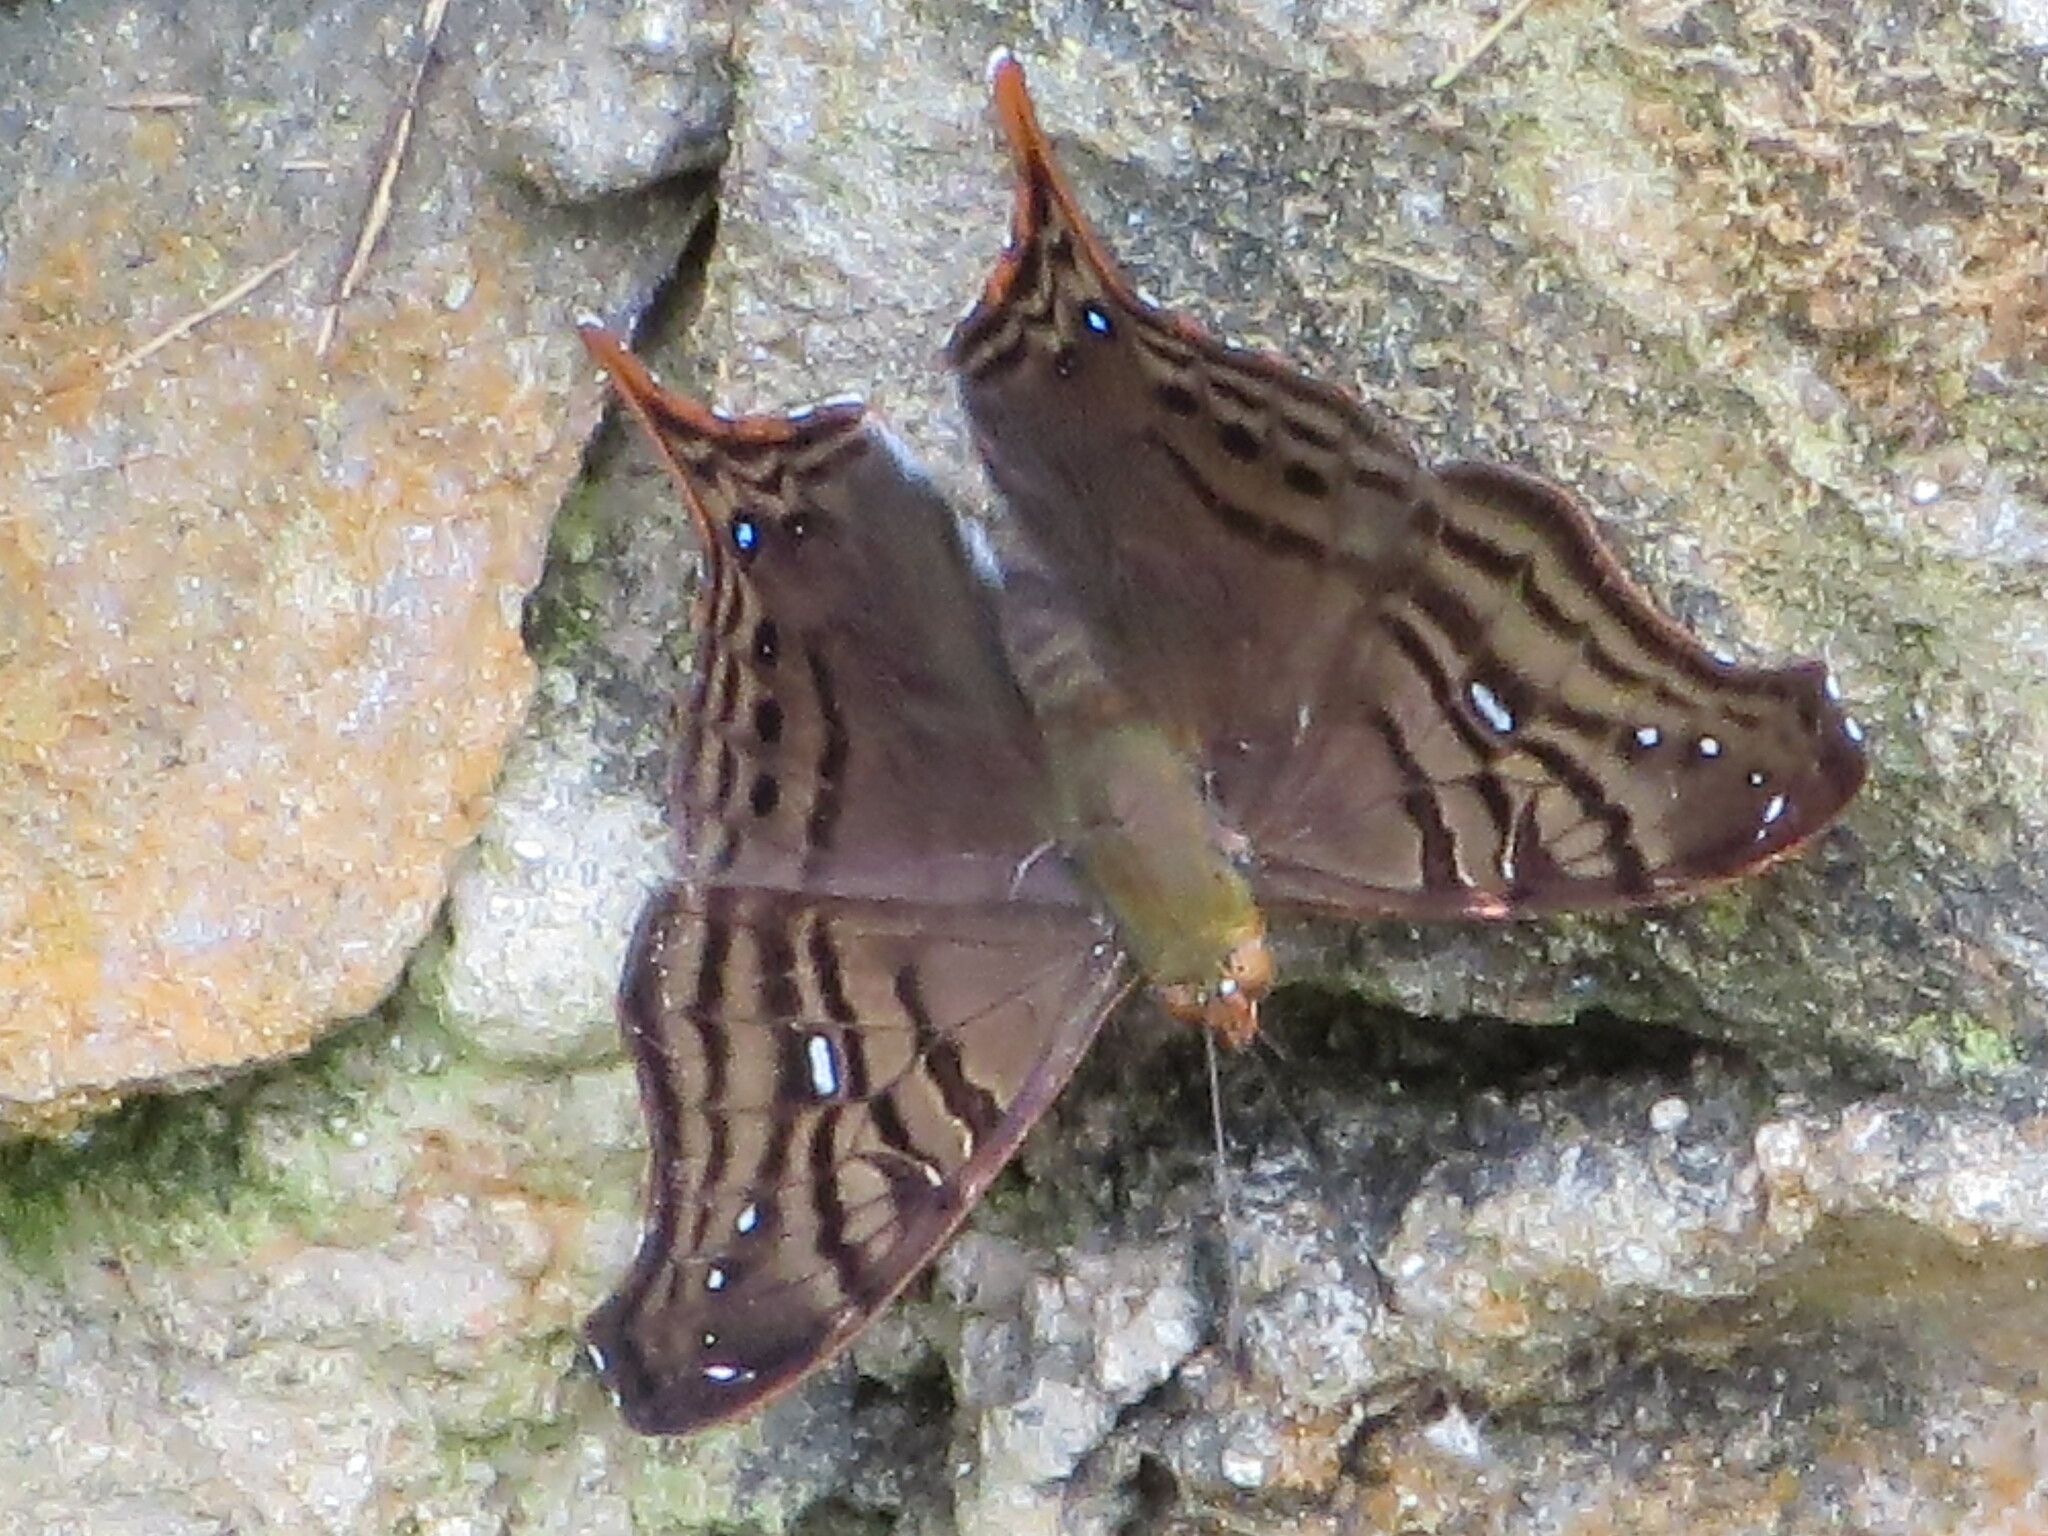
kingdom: Animalia
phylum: Arthropoda
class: Insecta
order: Lepidoptera
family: Nymphalidae
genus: Hypanartia
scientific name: Hypanartia dione
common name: Banded mapwing
